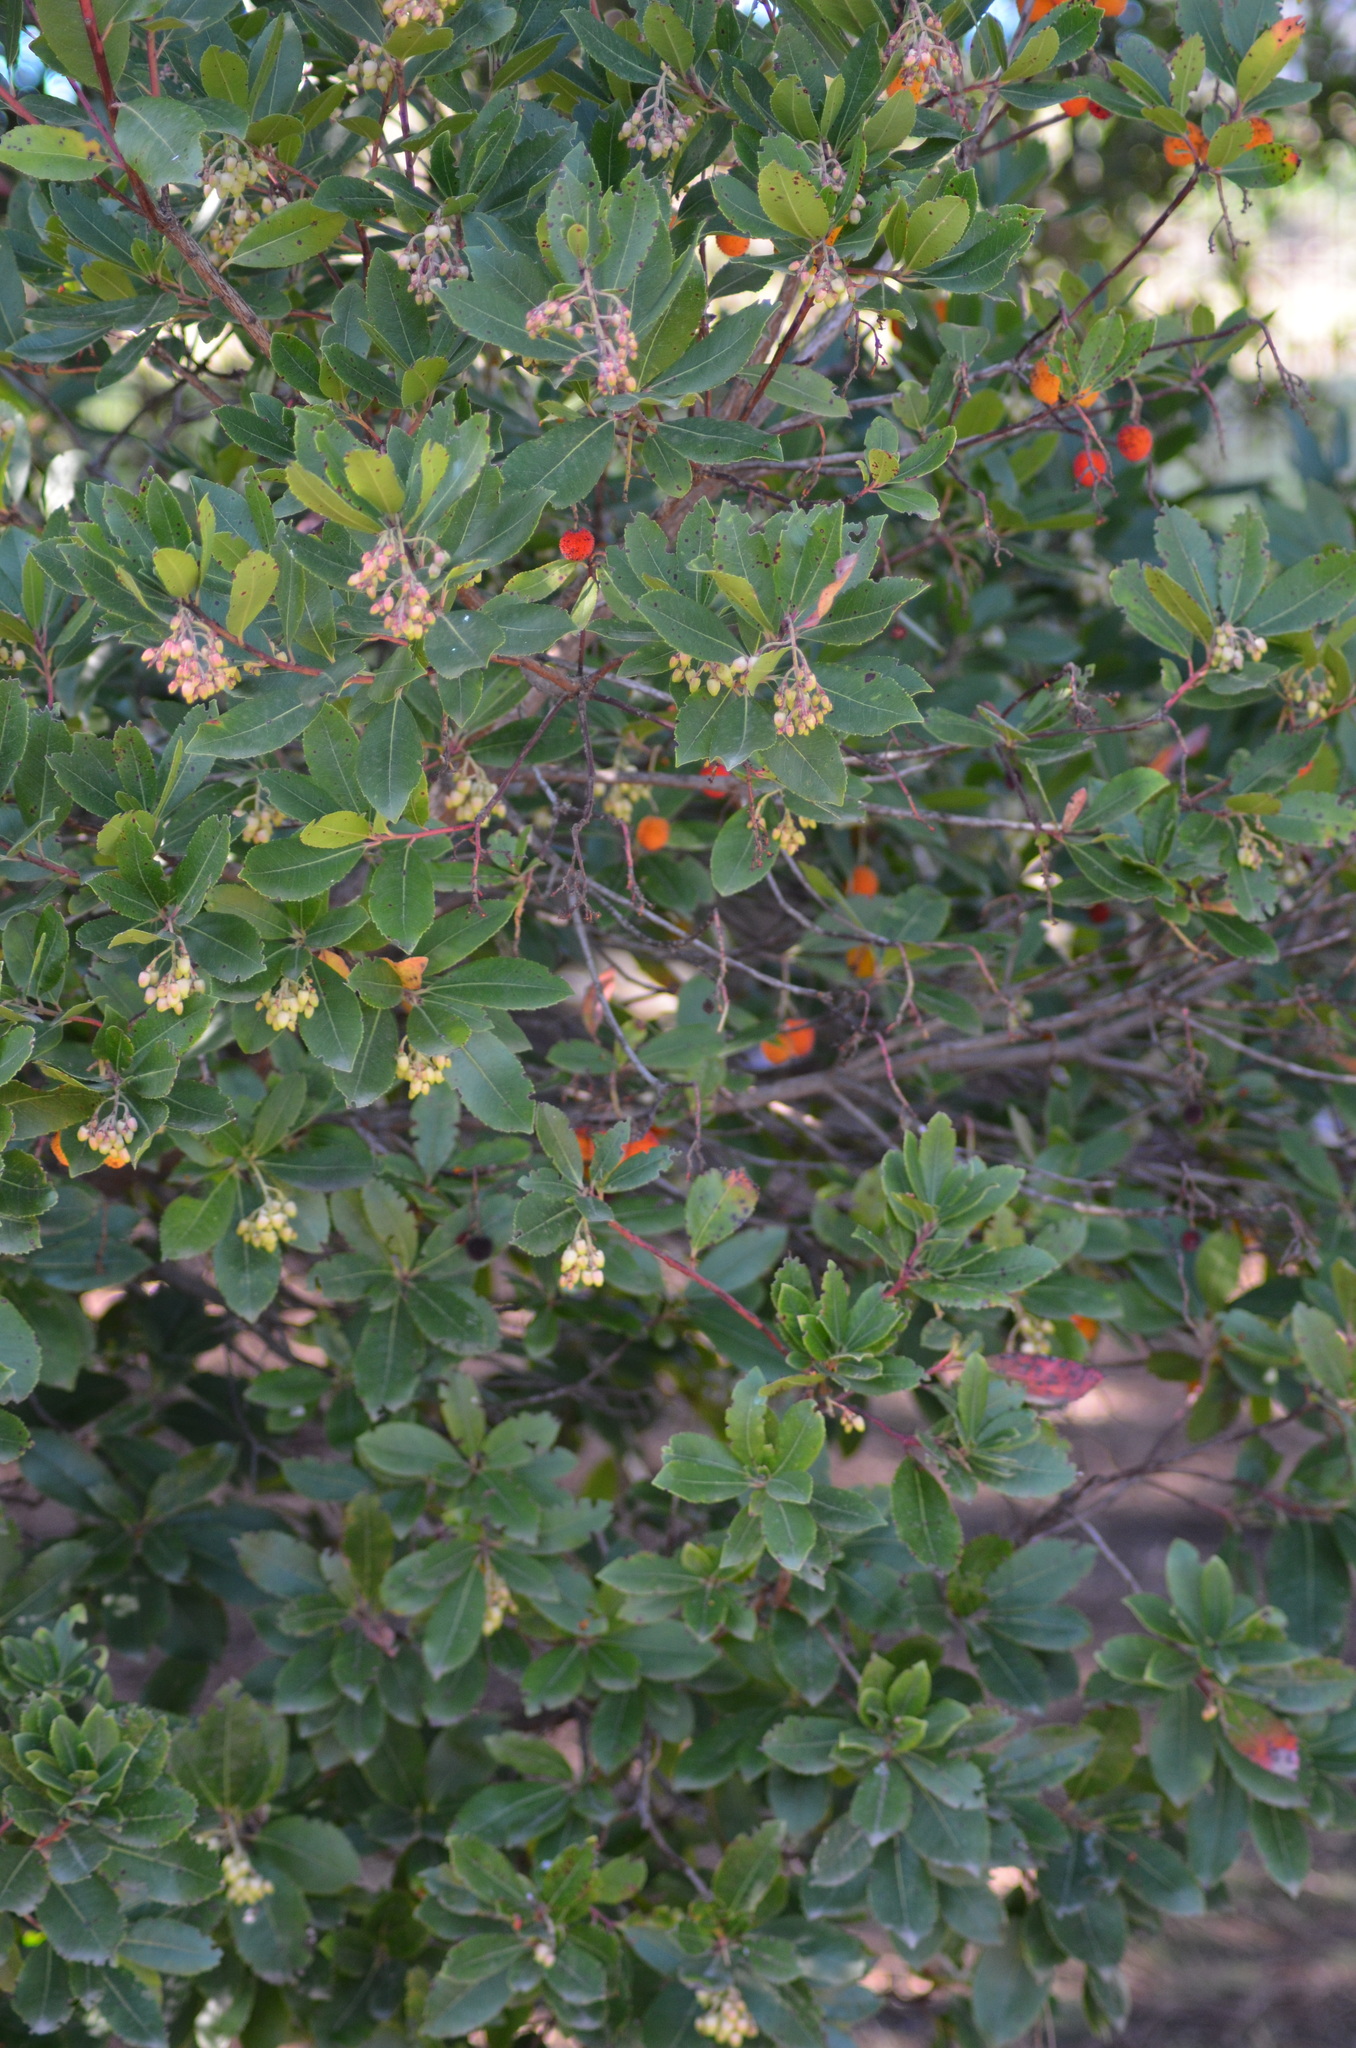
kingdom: Plantae
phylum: Tracheophyta
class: Magnoliopsida
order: Ericales
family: Ericaceae
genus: Arbutus
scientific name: Arbutus unedo
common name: Strawberry-tree
